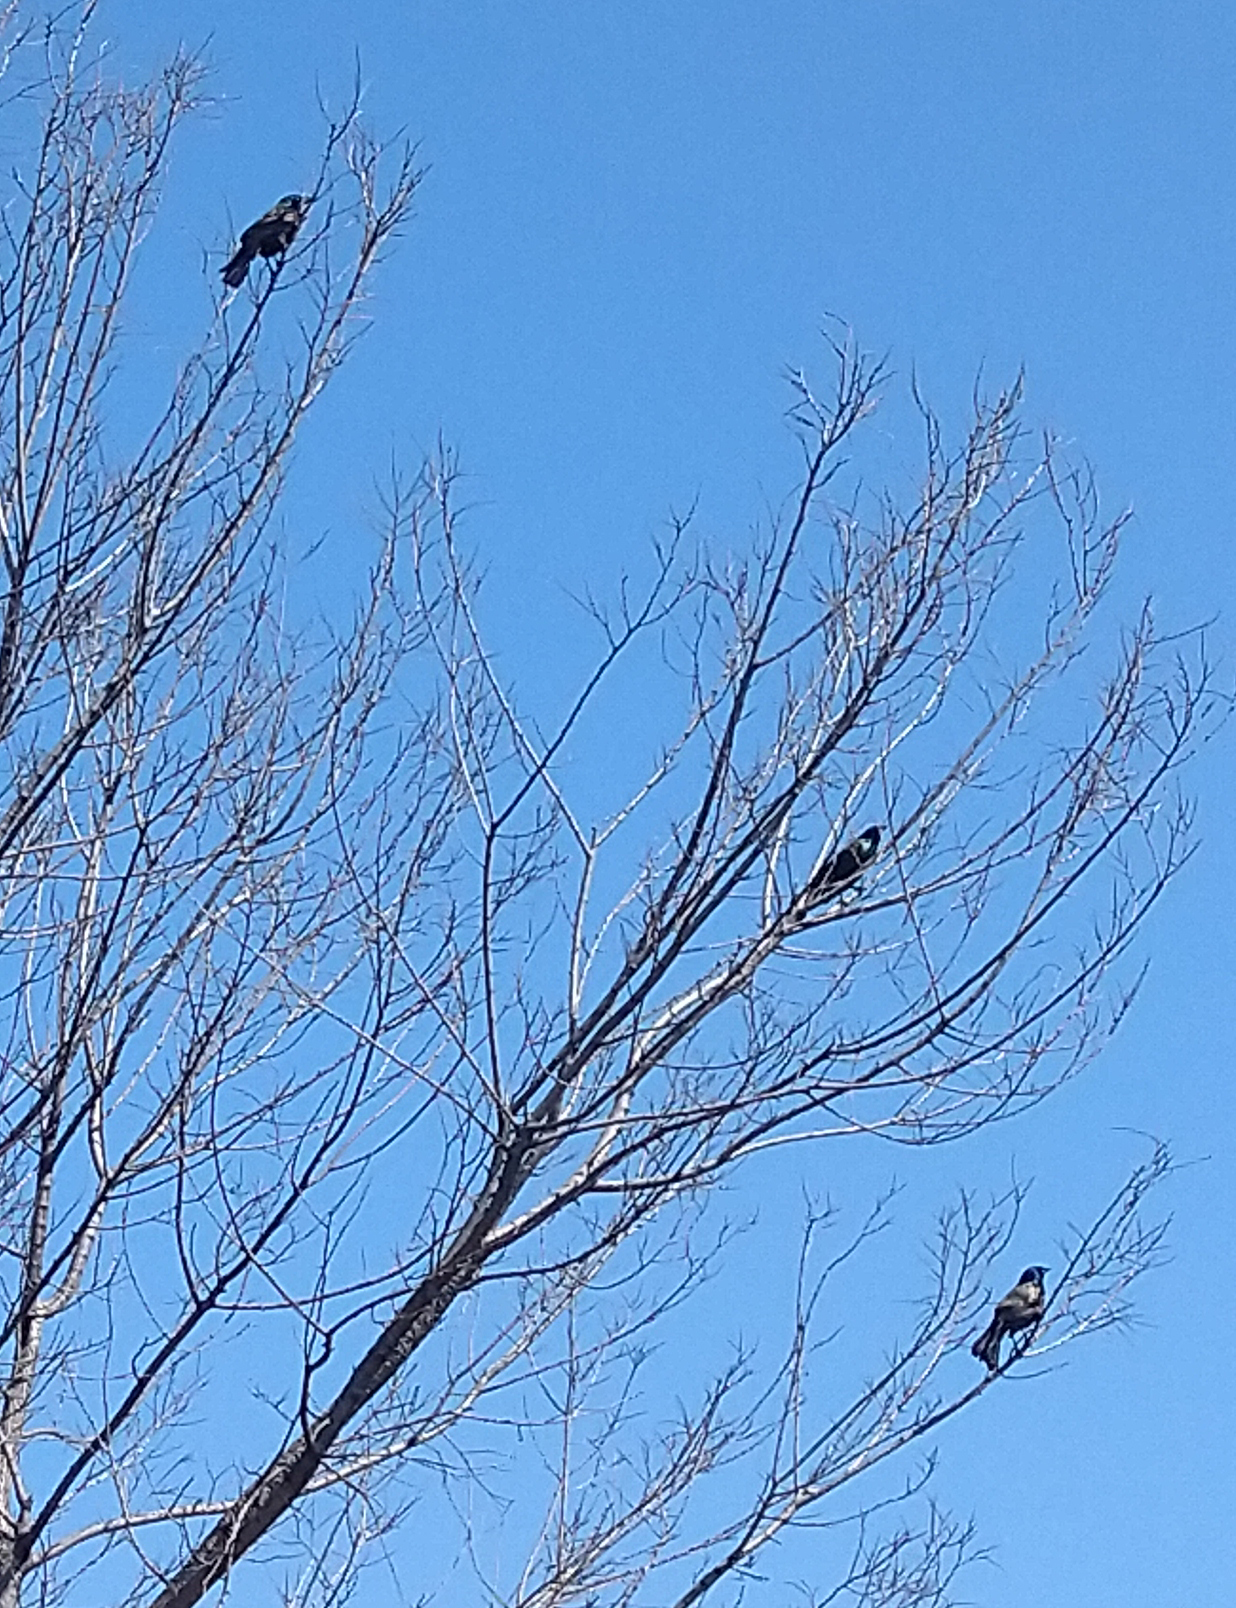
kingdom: Animalia
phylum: Chordata
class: Aves
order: Passeriformes
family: Icteridae
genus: Quiscalus
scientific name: Quiscalus quiscula
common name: Common grackle
